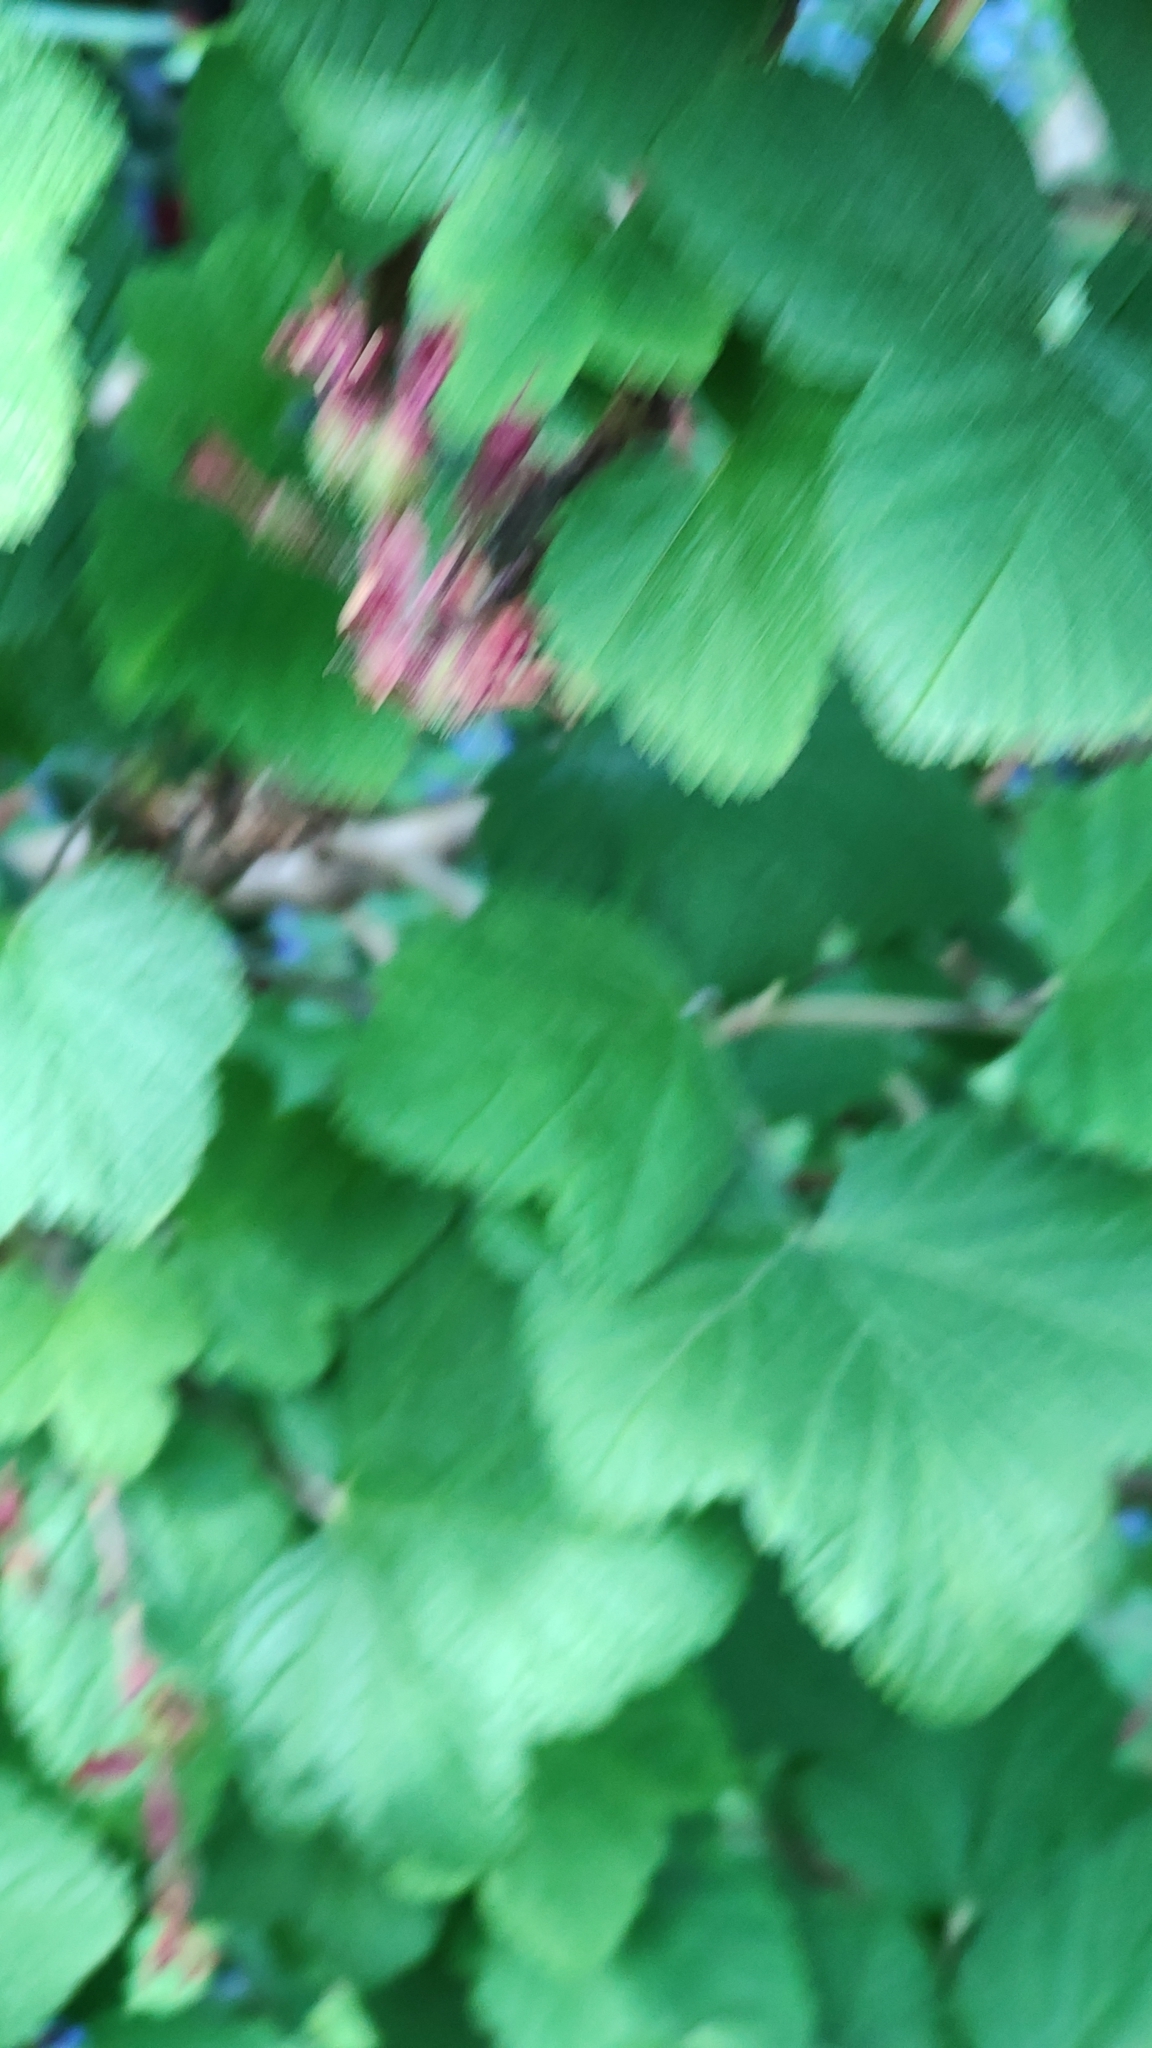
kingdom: Plantae
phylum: Tracheophyta
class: Magnoliopsida
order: Saxifragales
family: Grossulariaceae
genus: Ribes
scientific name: Ribes sanguineum
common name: Flowering currant
